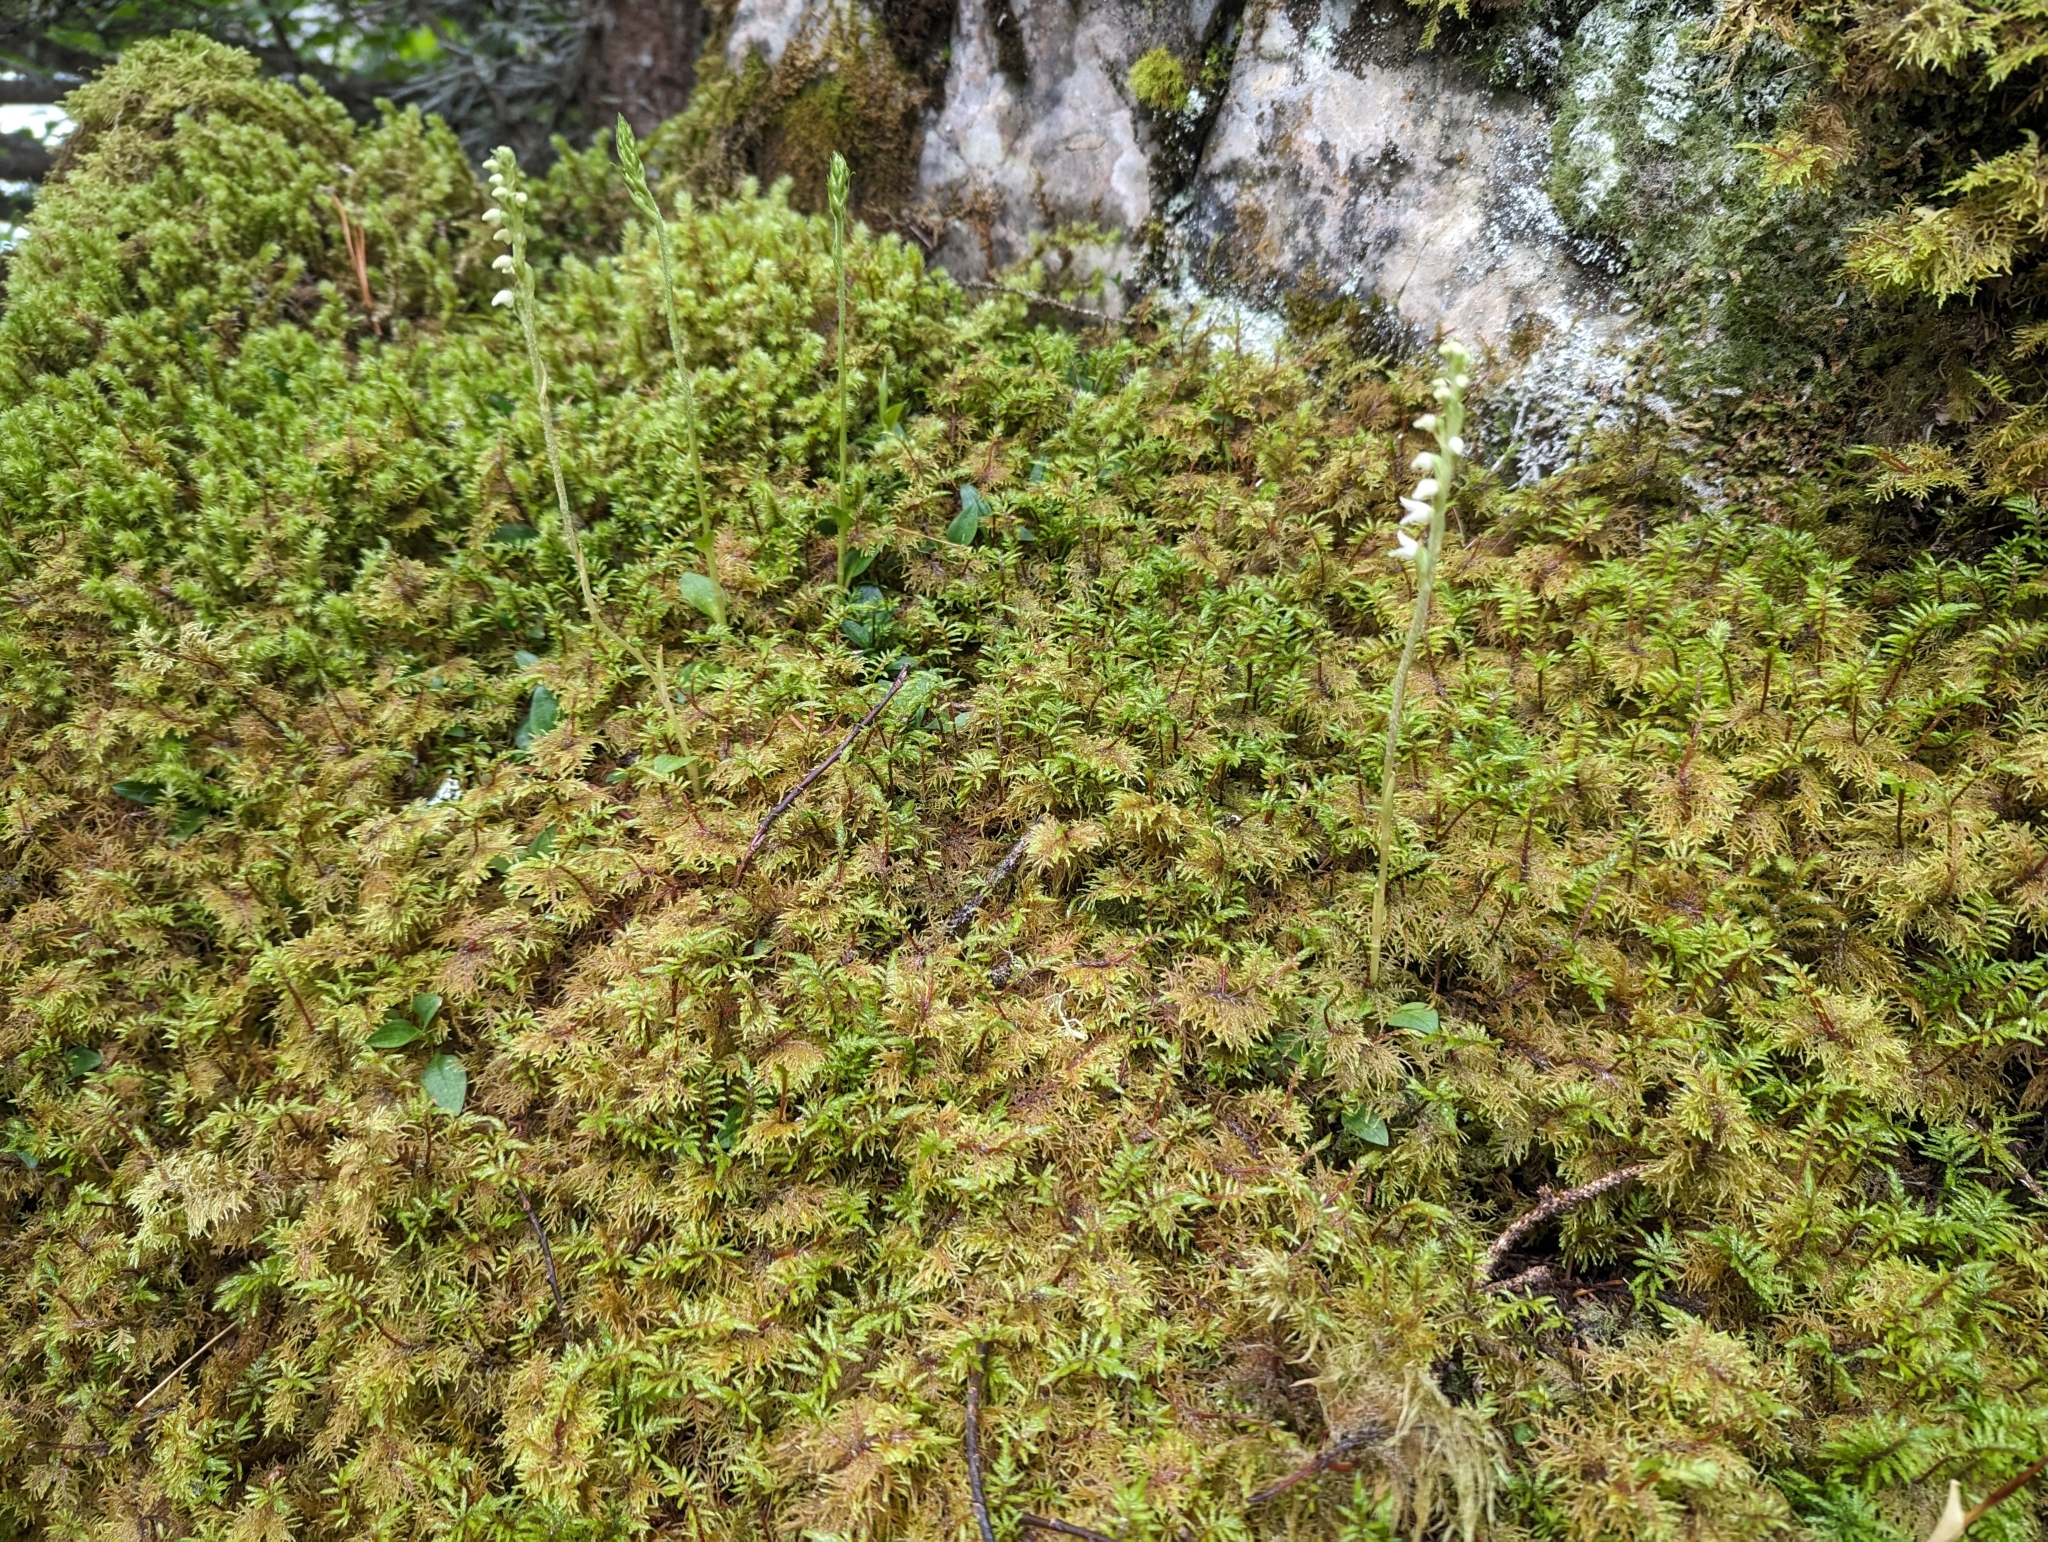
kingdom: Plantae
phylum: Tracheophyta
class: Liliopsida
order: Asparagales
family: Orchidaceae
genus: Goodyera
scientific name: Goodyera repens
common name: Creeping lady's-tresses
